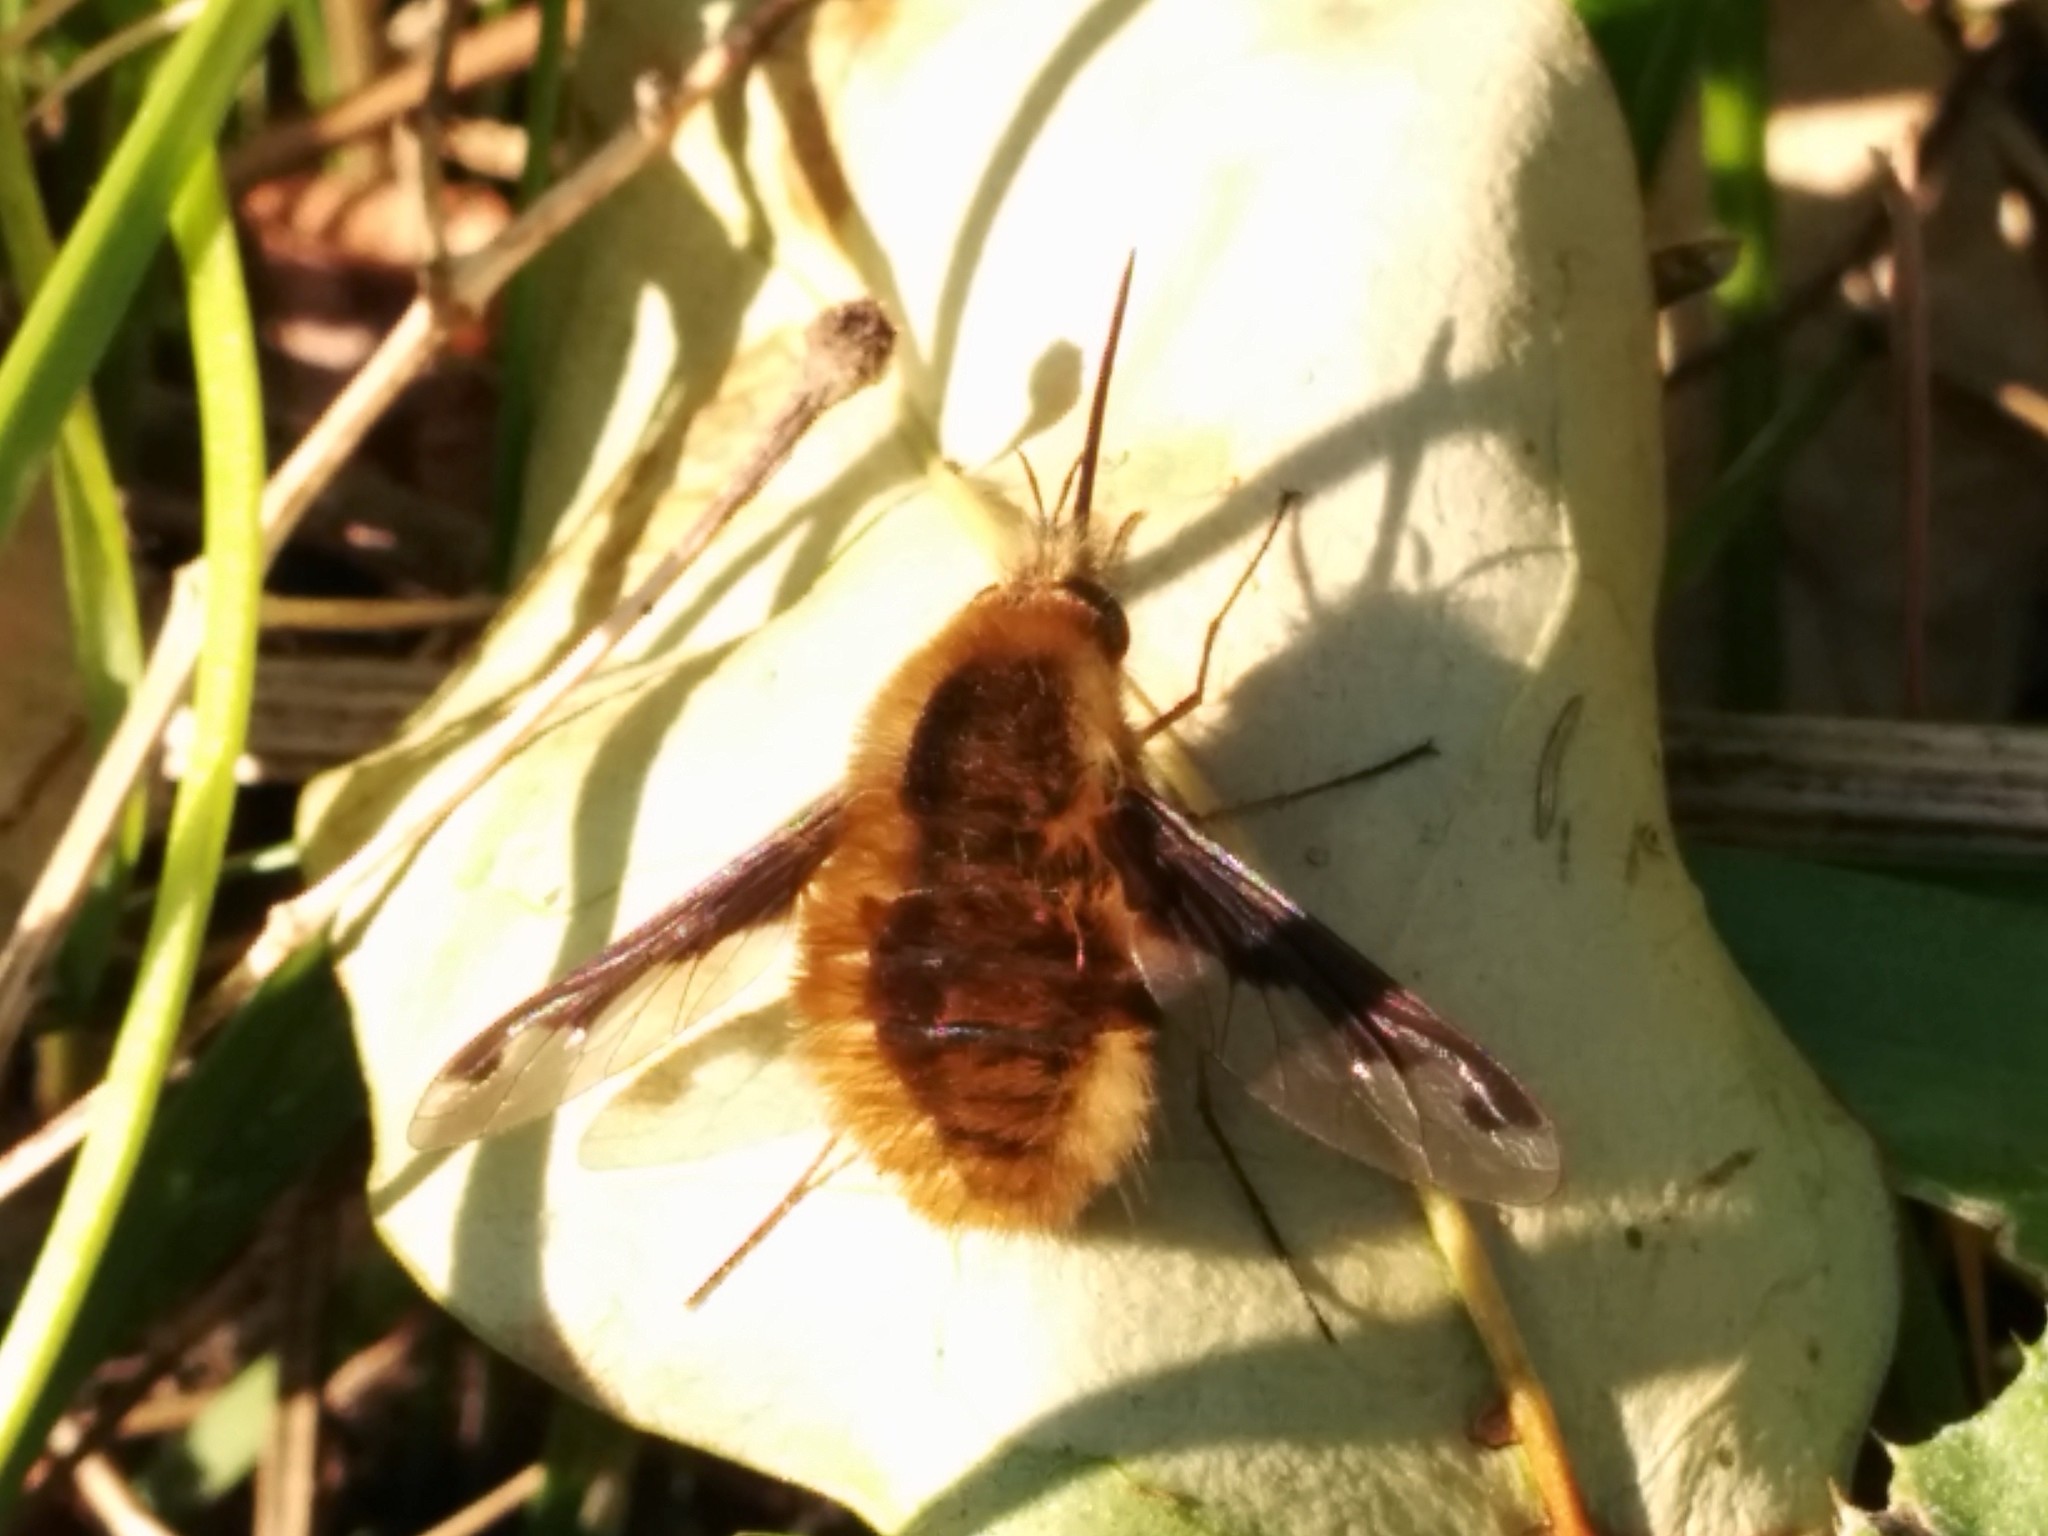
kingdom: Animalia
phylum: Arthropoda
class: Insecta
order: Diptera
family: Bombyliidae
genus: Bombylius
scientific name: Bombylius major
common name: Bee fly
